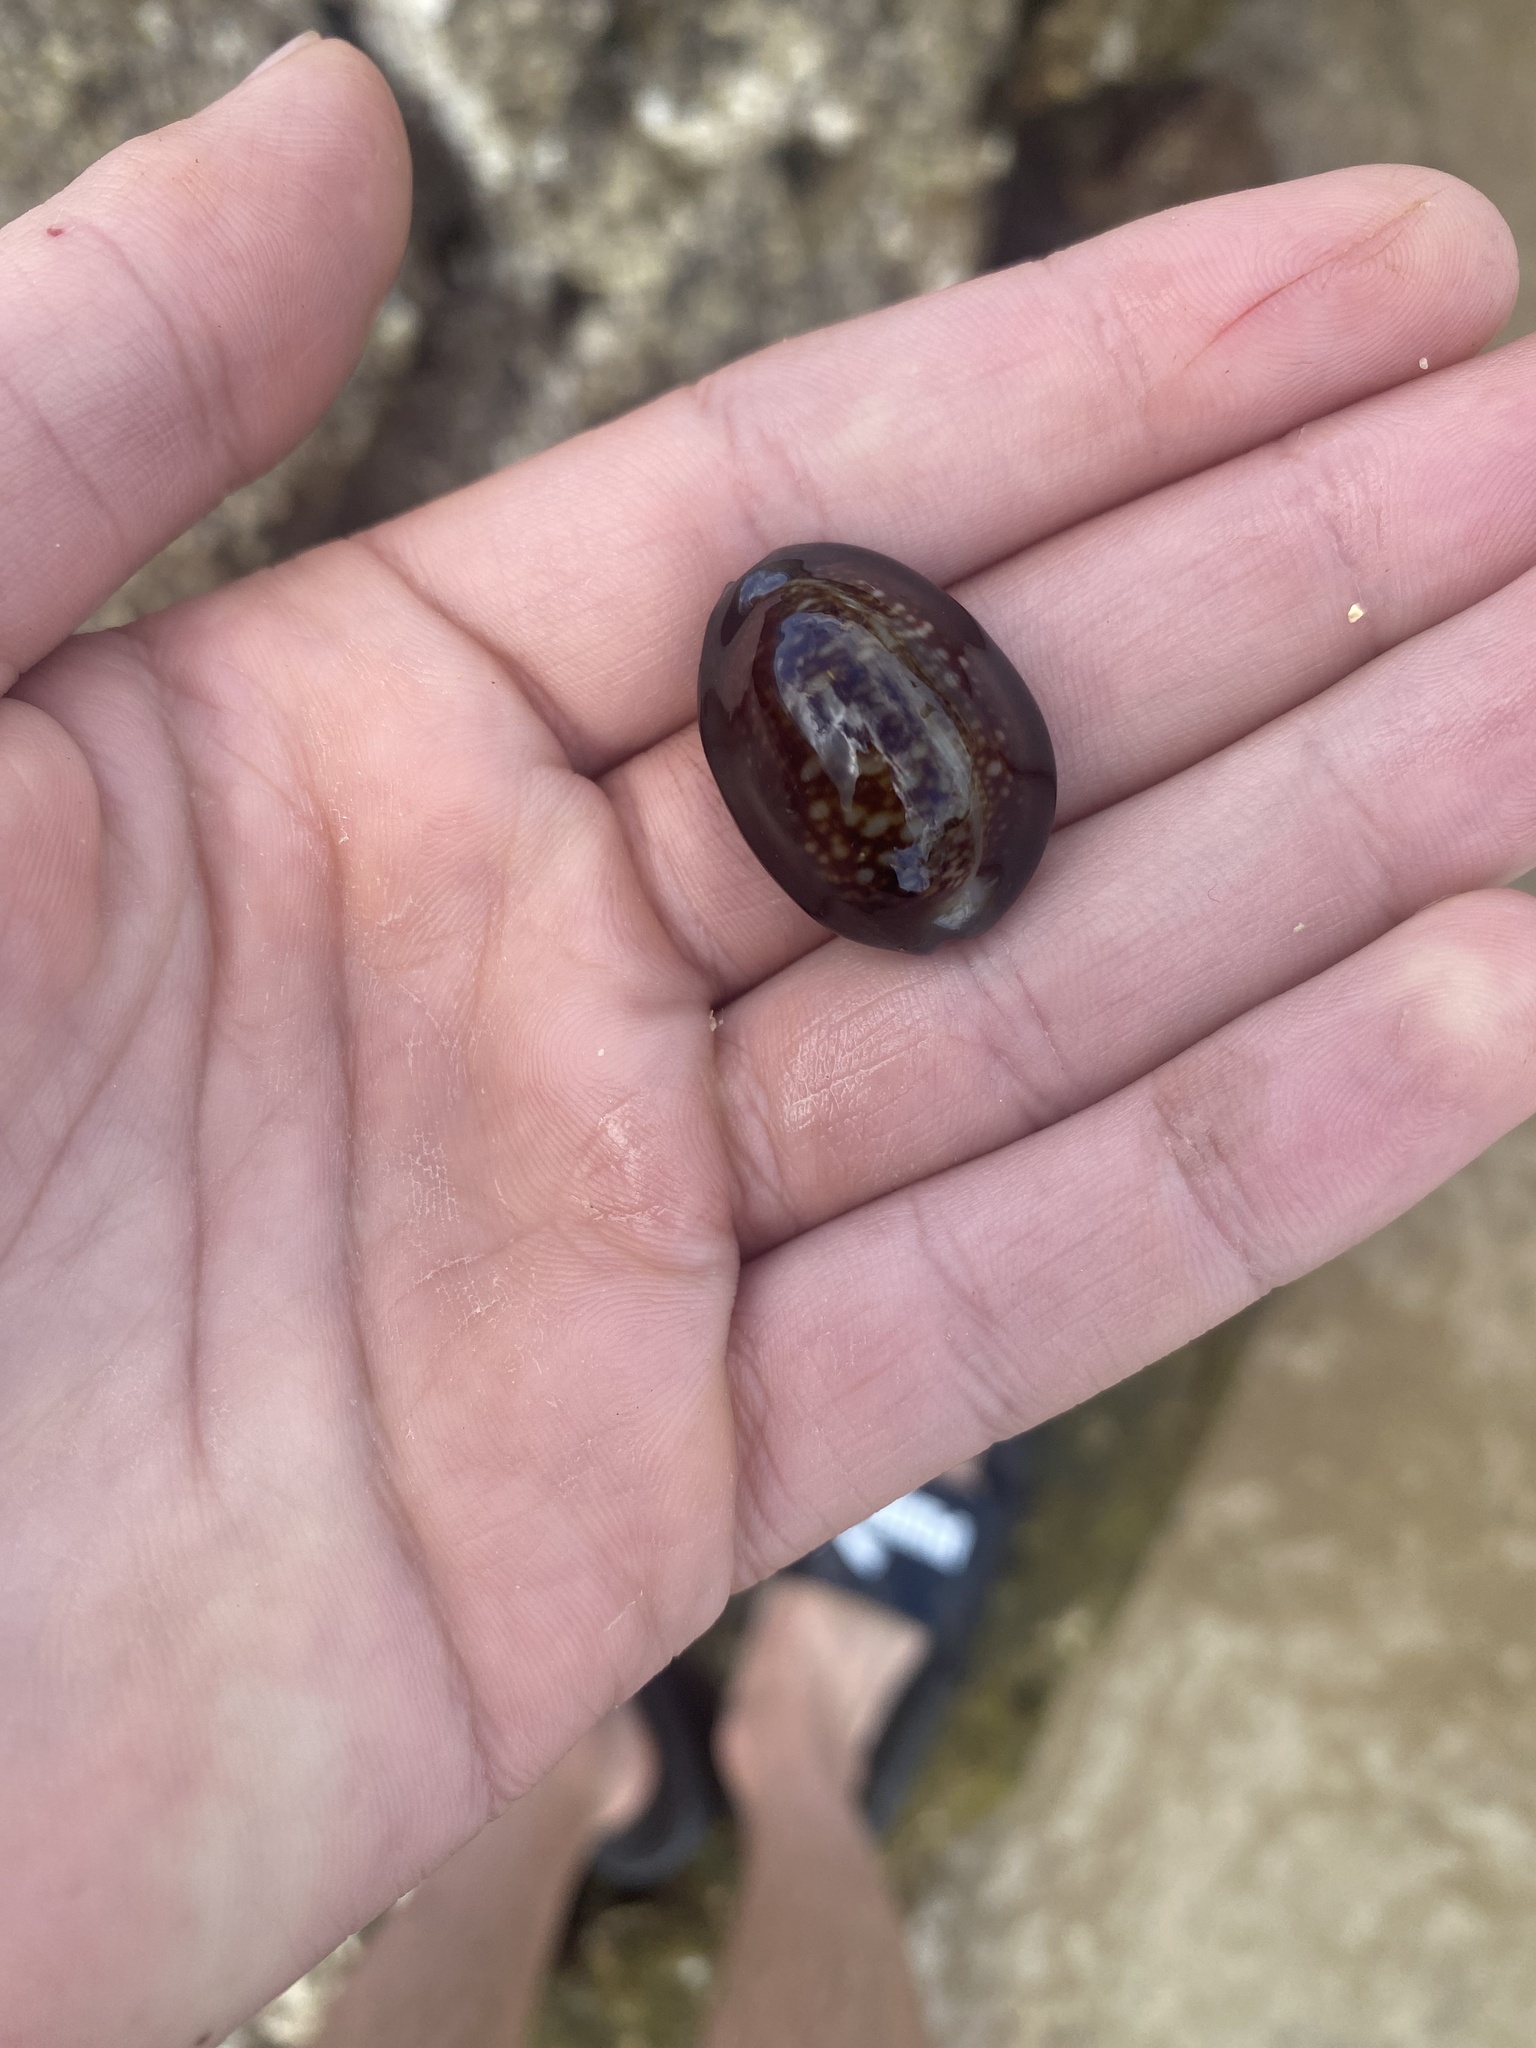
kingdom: Animalia
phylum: Mollusca
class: Gastropoda
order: Littorinimorpha
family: Cypraeidae
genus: Monetaria
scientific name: Monetaria caputophidii
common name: Snake's head cowry
